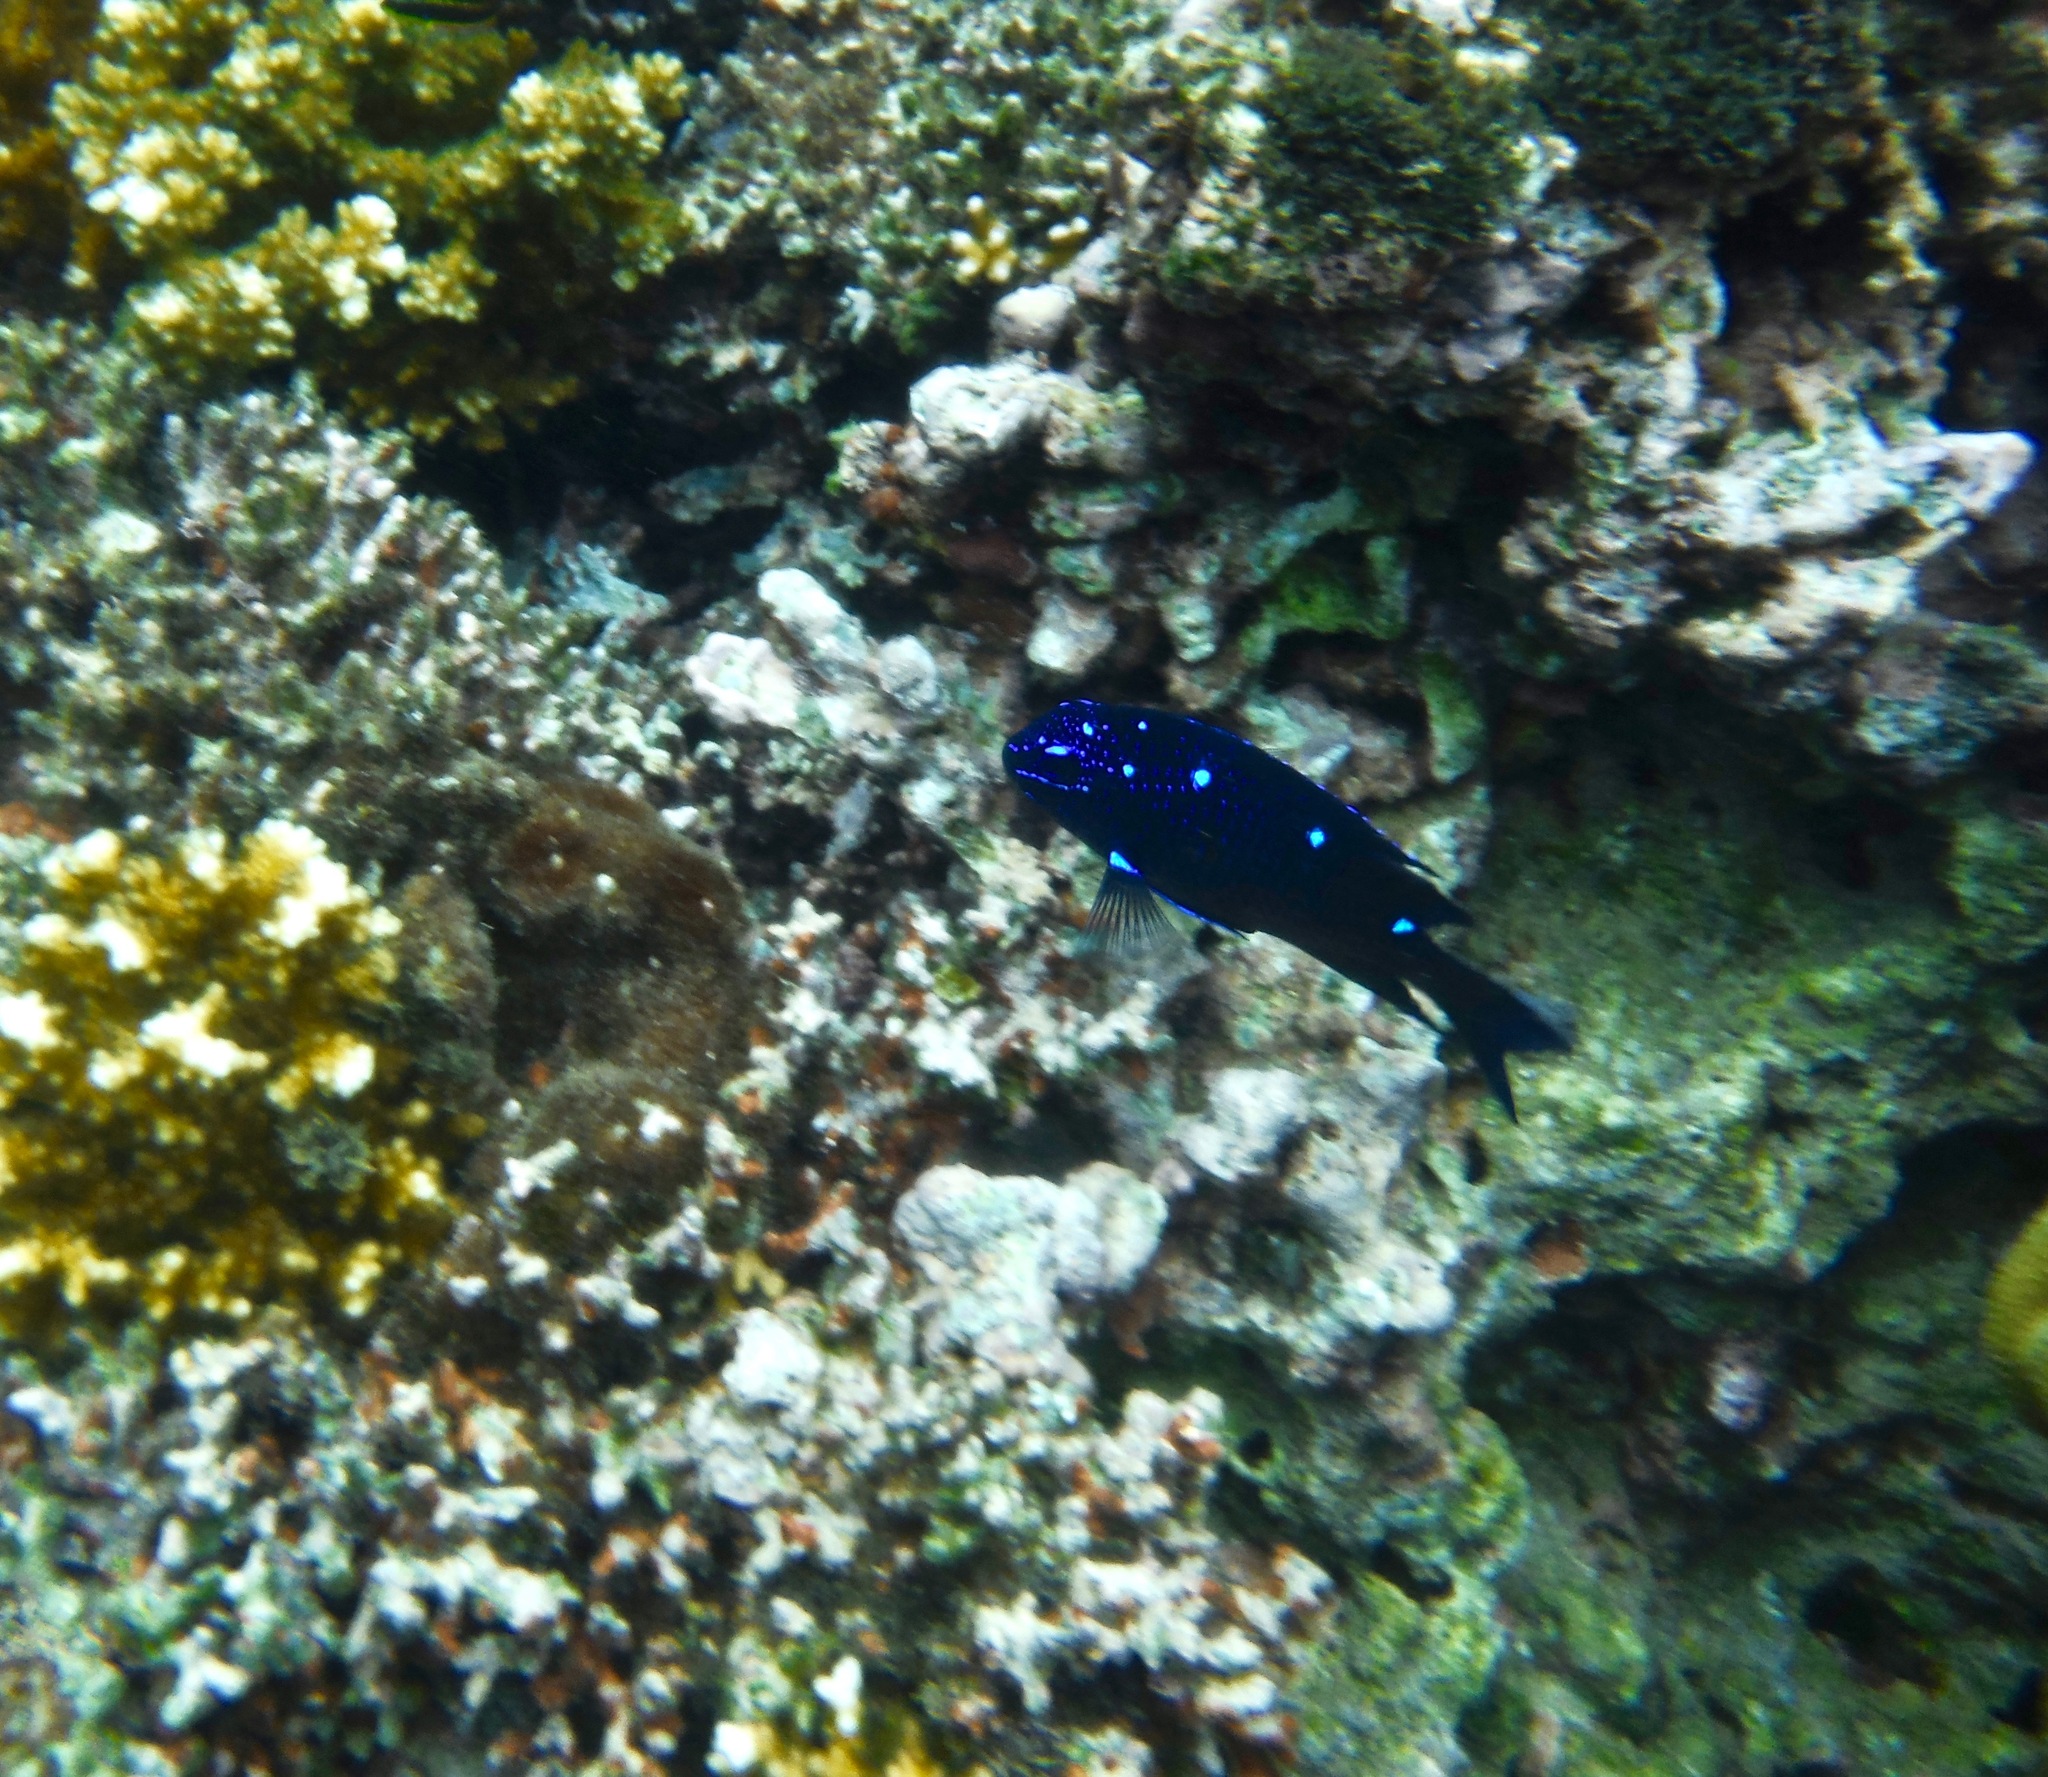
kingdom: Animalia
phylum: Chordata
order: Perciformes
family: Pomacentridae
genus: Microspathodon
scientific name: Microspathodon dorsalis
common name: Giant damselfish
